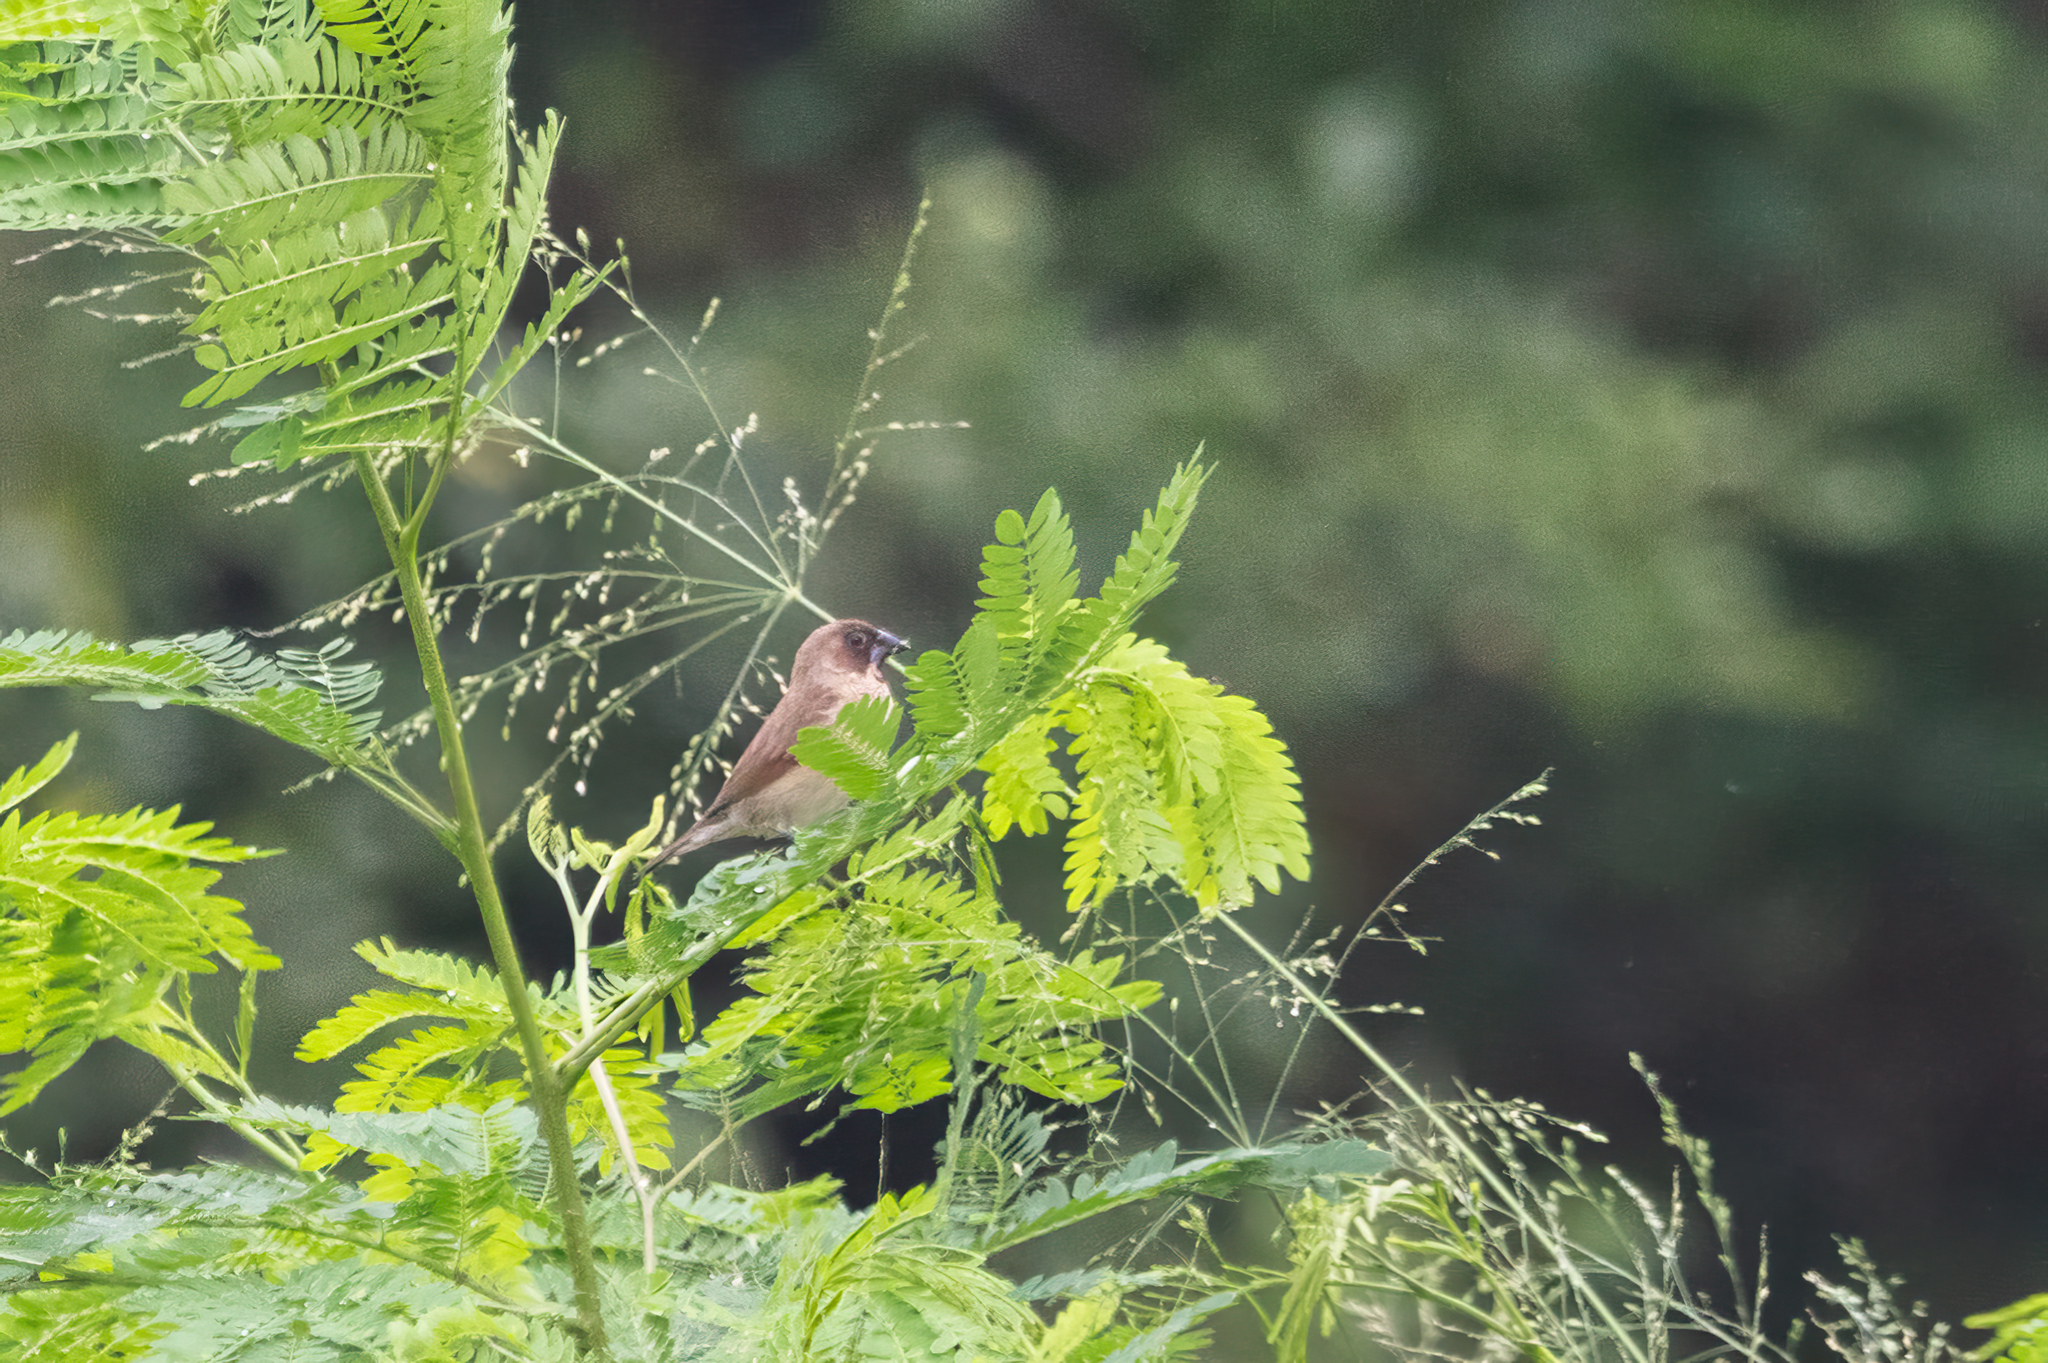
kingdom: Animalia
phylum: Chordata
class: Aves
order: Passeriformes
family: Estrildidae
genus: Lonchura
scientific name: Lonchura punctulata
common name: Scaly-breasted munia
